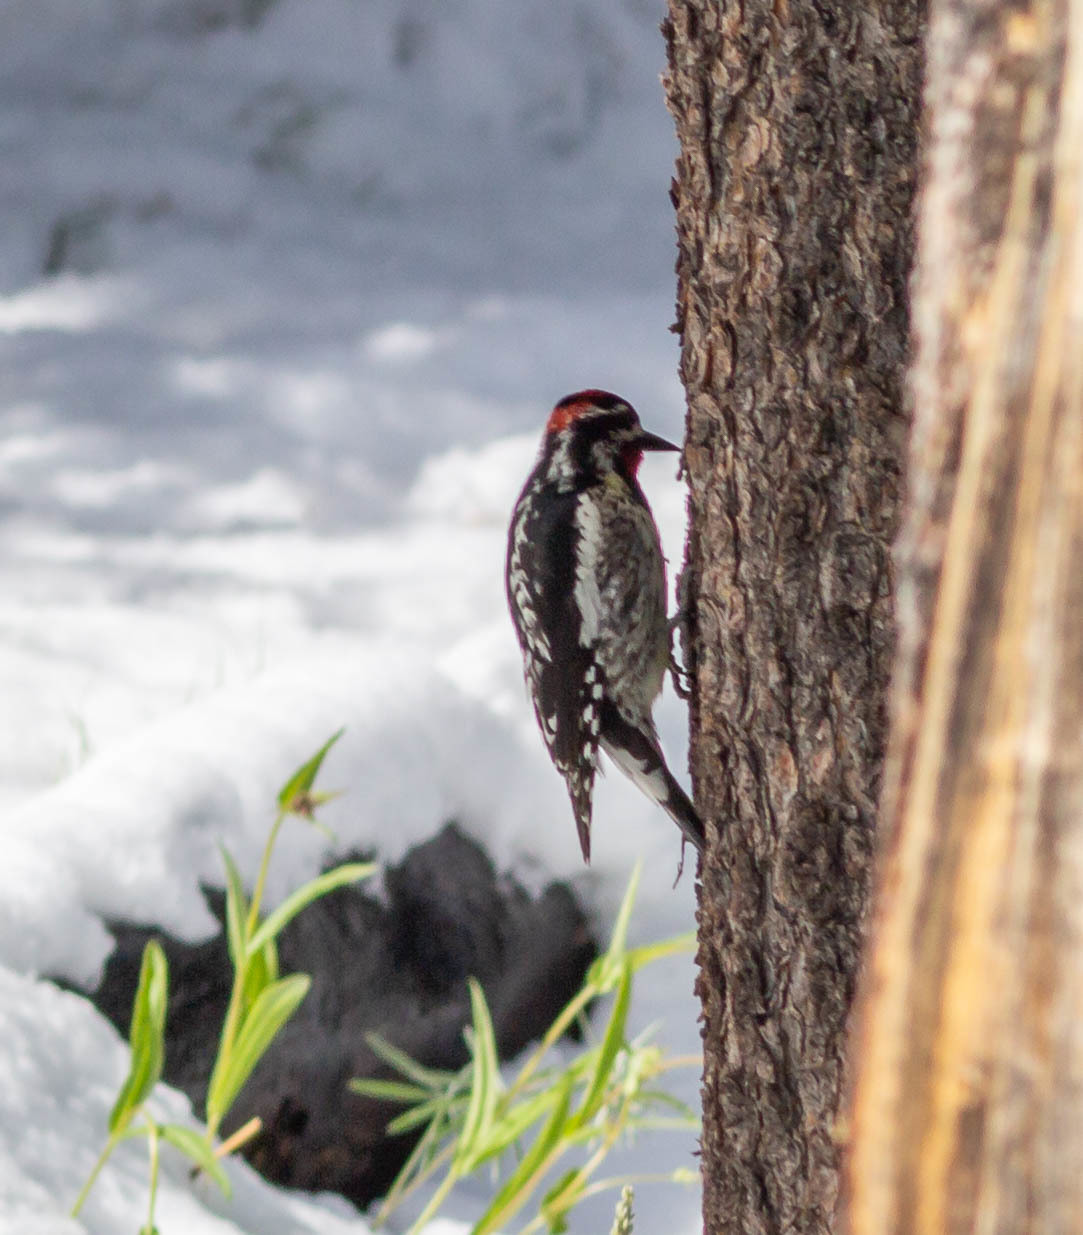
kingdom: Animalia
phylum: Chordata
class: Aves
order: Piciformes
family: Picidae
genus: Sphyrapicus
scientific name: Sphyrapicus nuchalis
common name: Red-naped sapsucker
